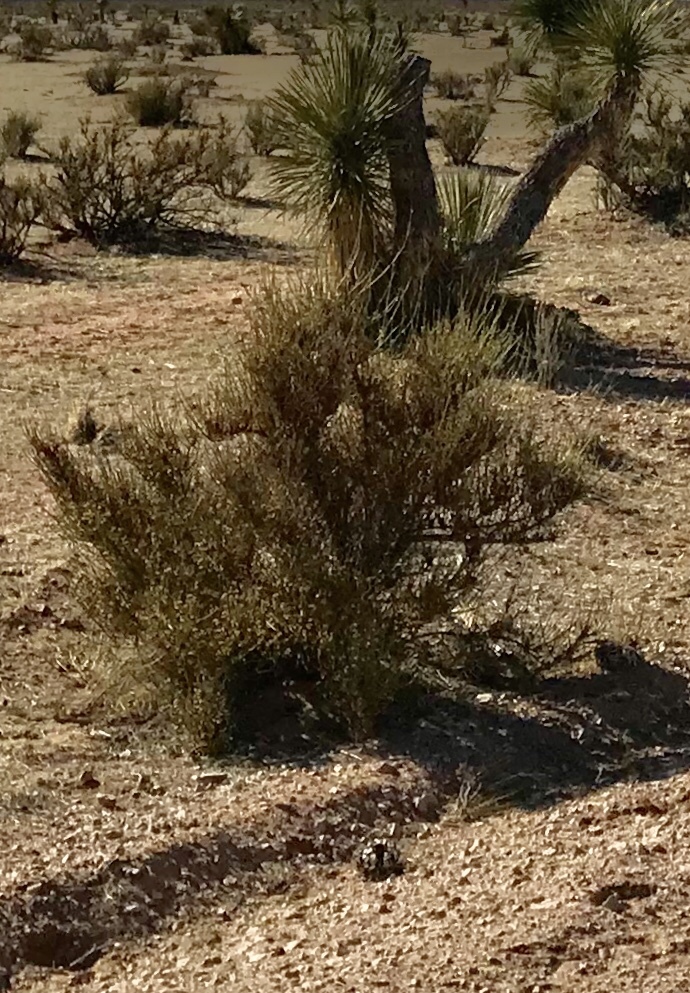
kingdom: Plantae
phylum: Tracheophyta
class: Gnetopsida
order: Ephedrales
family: Ephedraceae
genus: Ephedra
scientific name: Ephedra trifurca
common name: Mexican-tea
